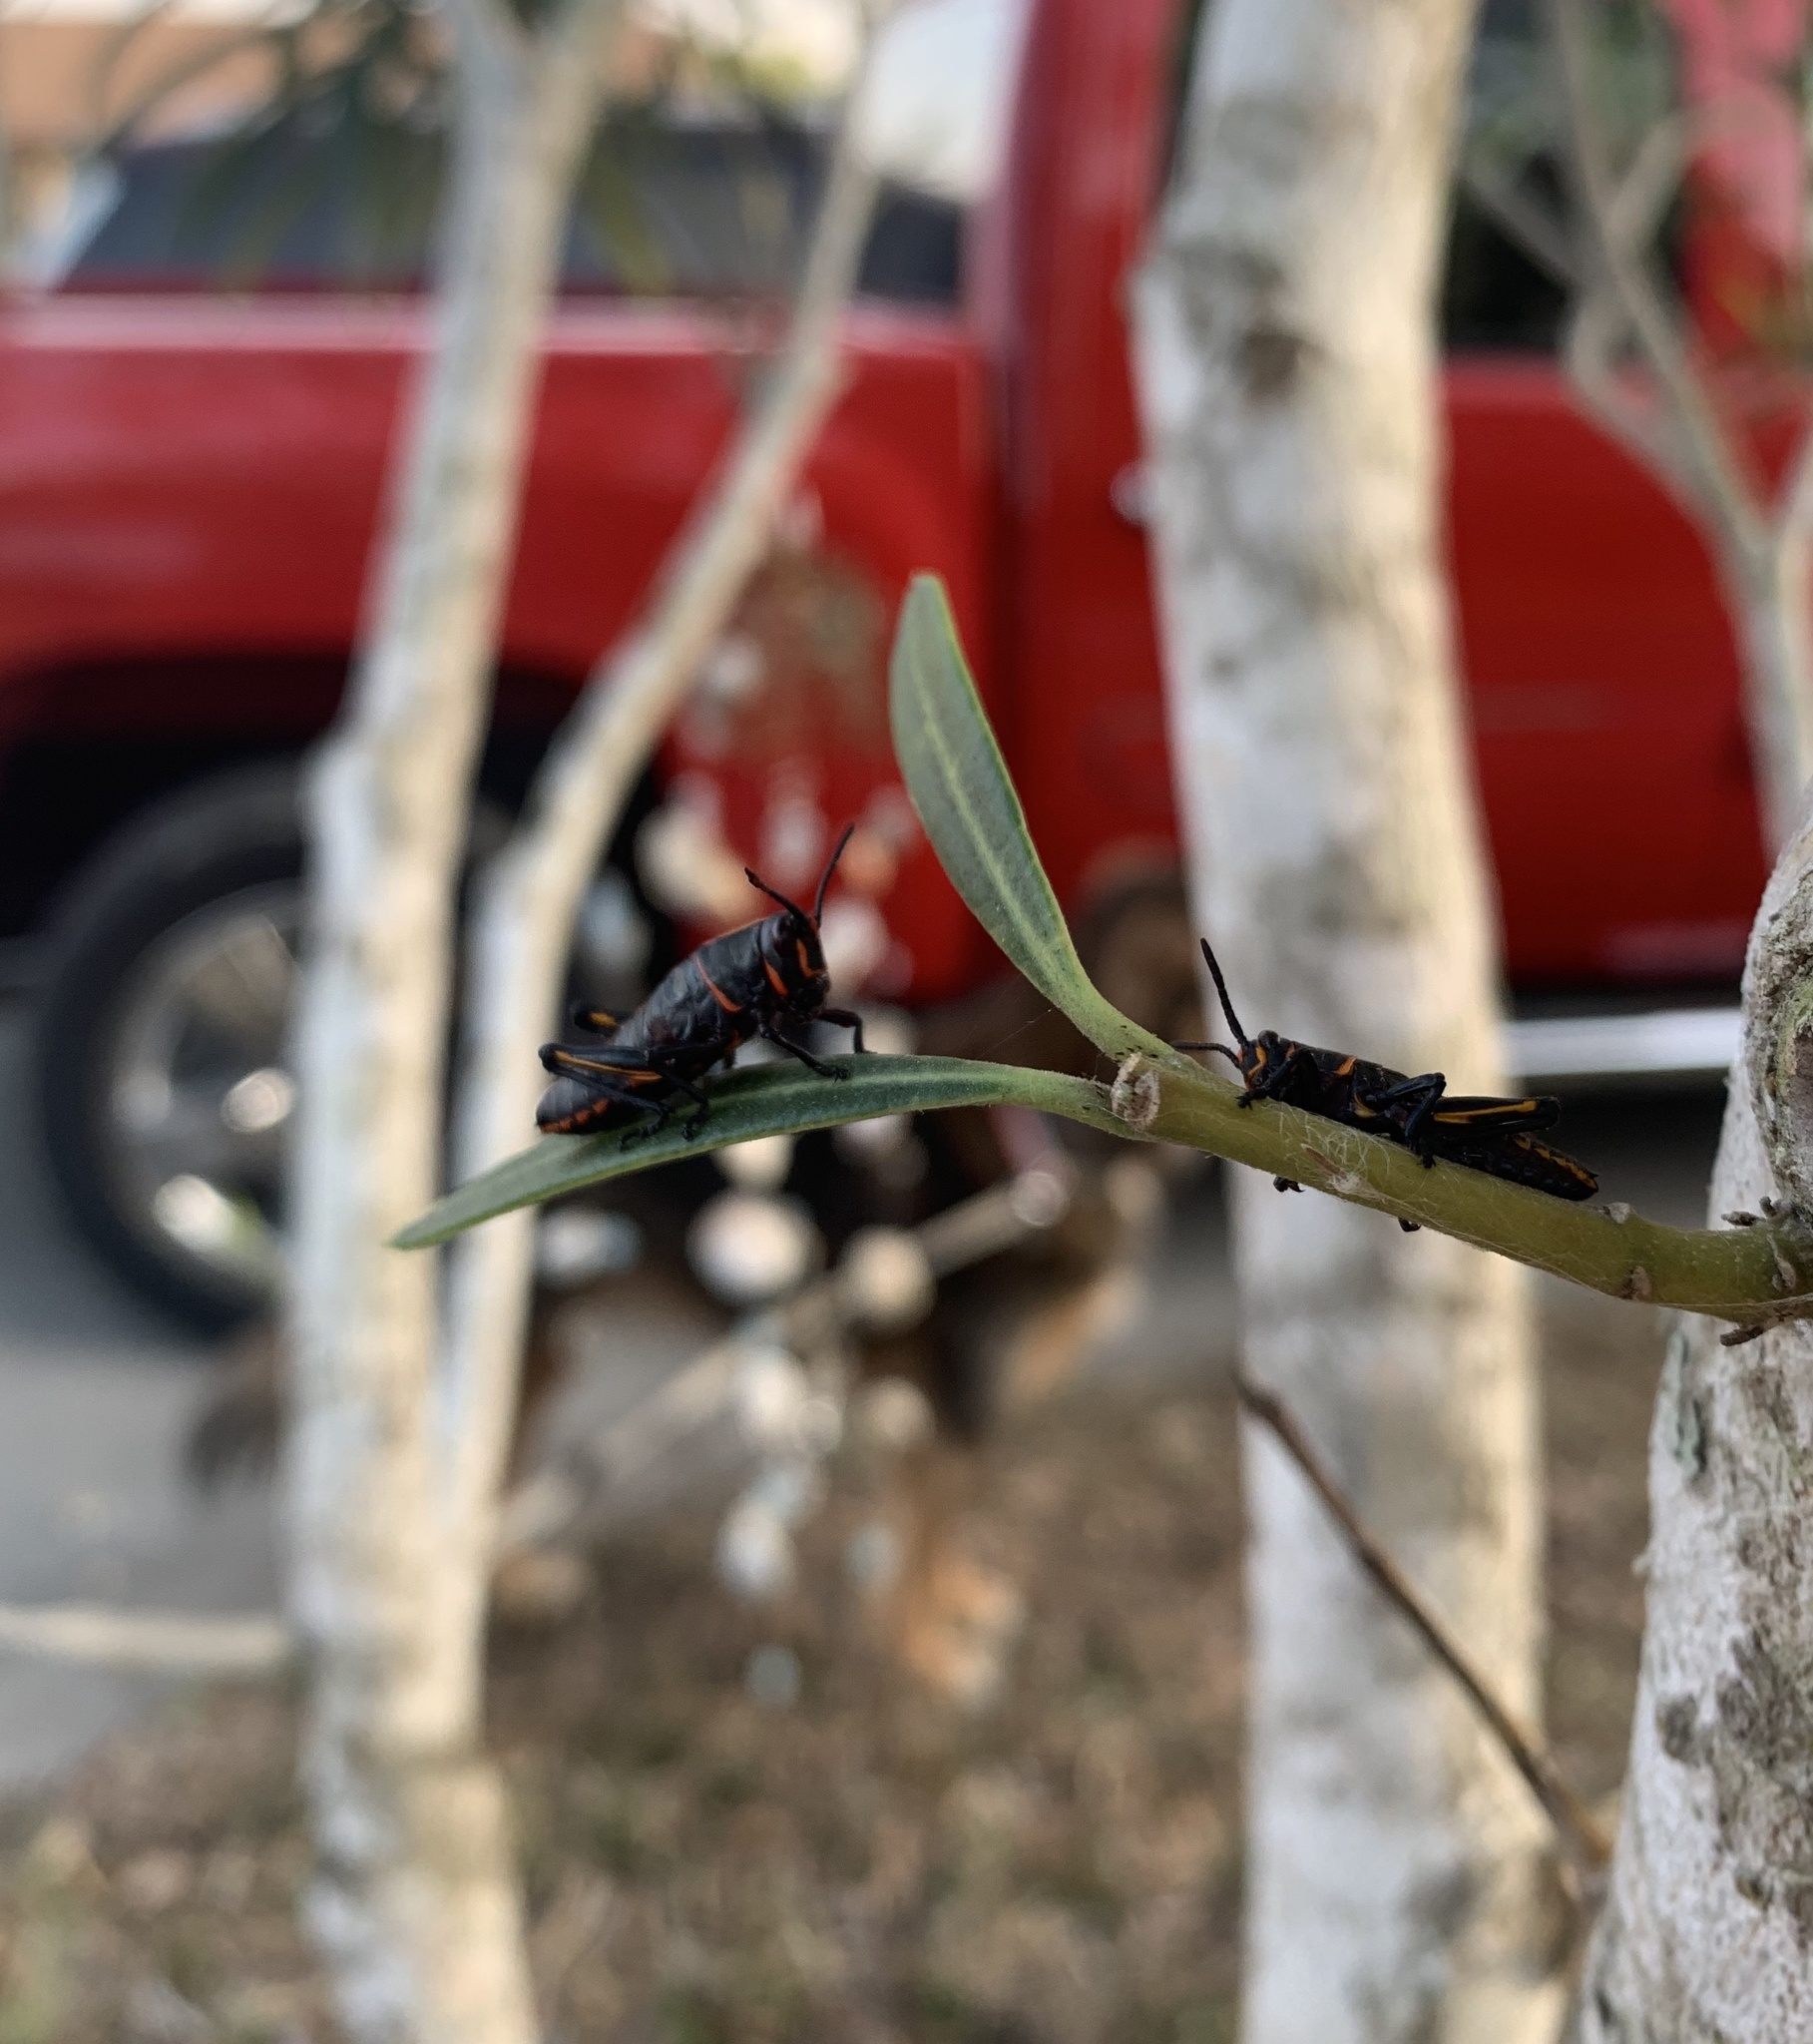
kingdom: Animalia
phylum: Arthropoda
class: Insecta
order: Orthoptera
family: Romaleidae
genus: Romalea
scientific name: Romalea microptera
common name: Eastern lubber grasshopper
